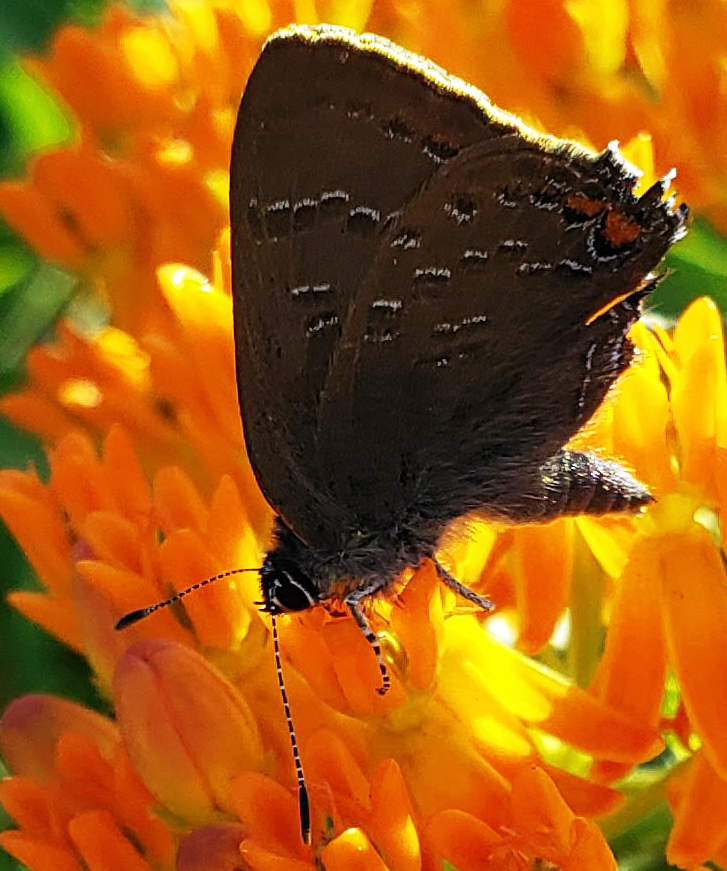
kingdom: Animalia
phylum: Arthropoda
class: Insecta
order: Lepidoptera
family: Lycaenidae
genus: Satyrium
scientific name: Satyrium calanus
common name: Banded hairstreak
